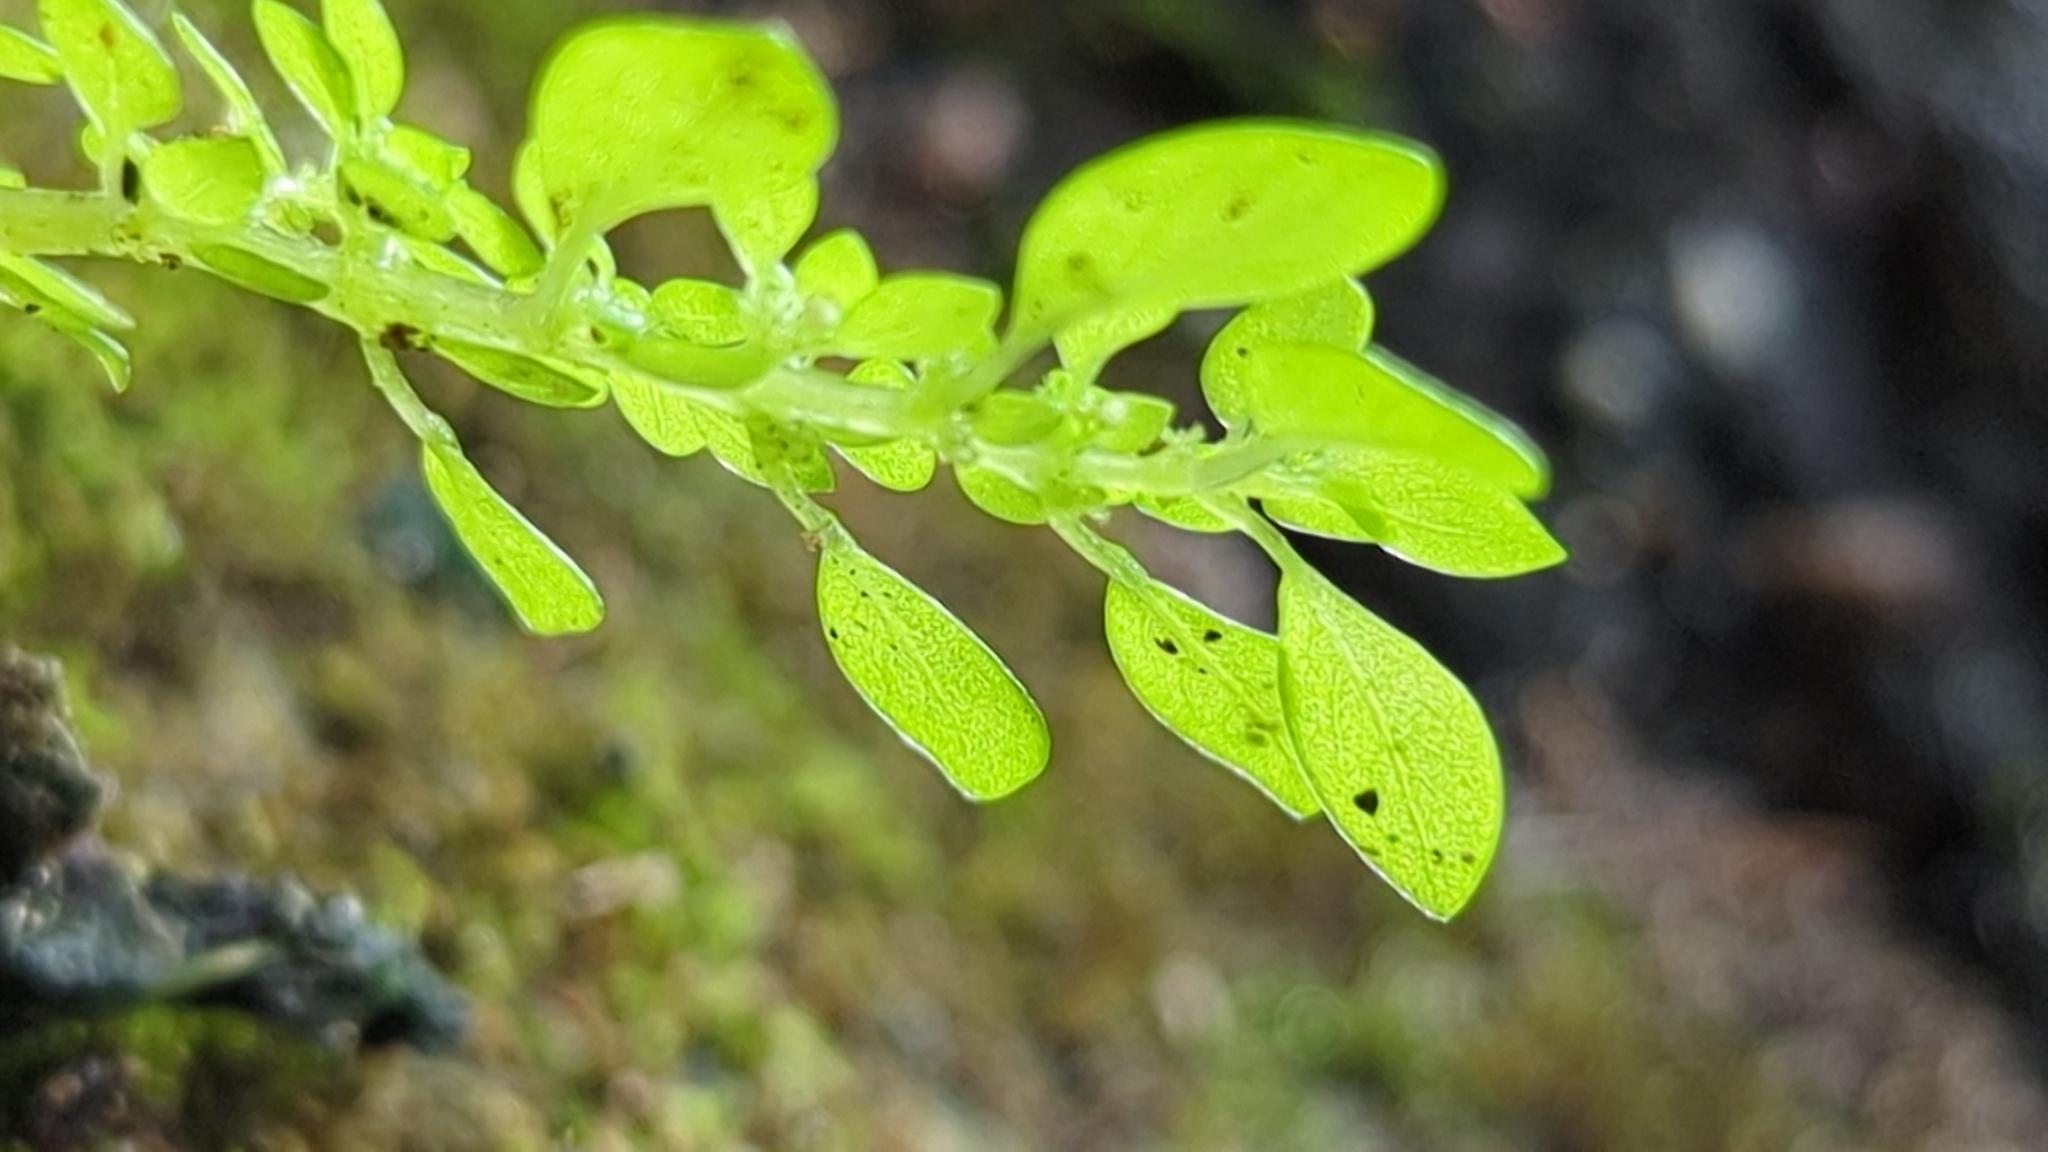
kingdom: Plantae
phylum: Tracheophyta
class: Magnoliopsida
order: Rosales
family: Urticaceae
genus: Pilea
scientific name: Pilea microphylla
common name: Artillery-plant
